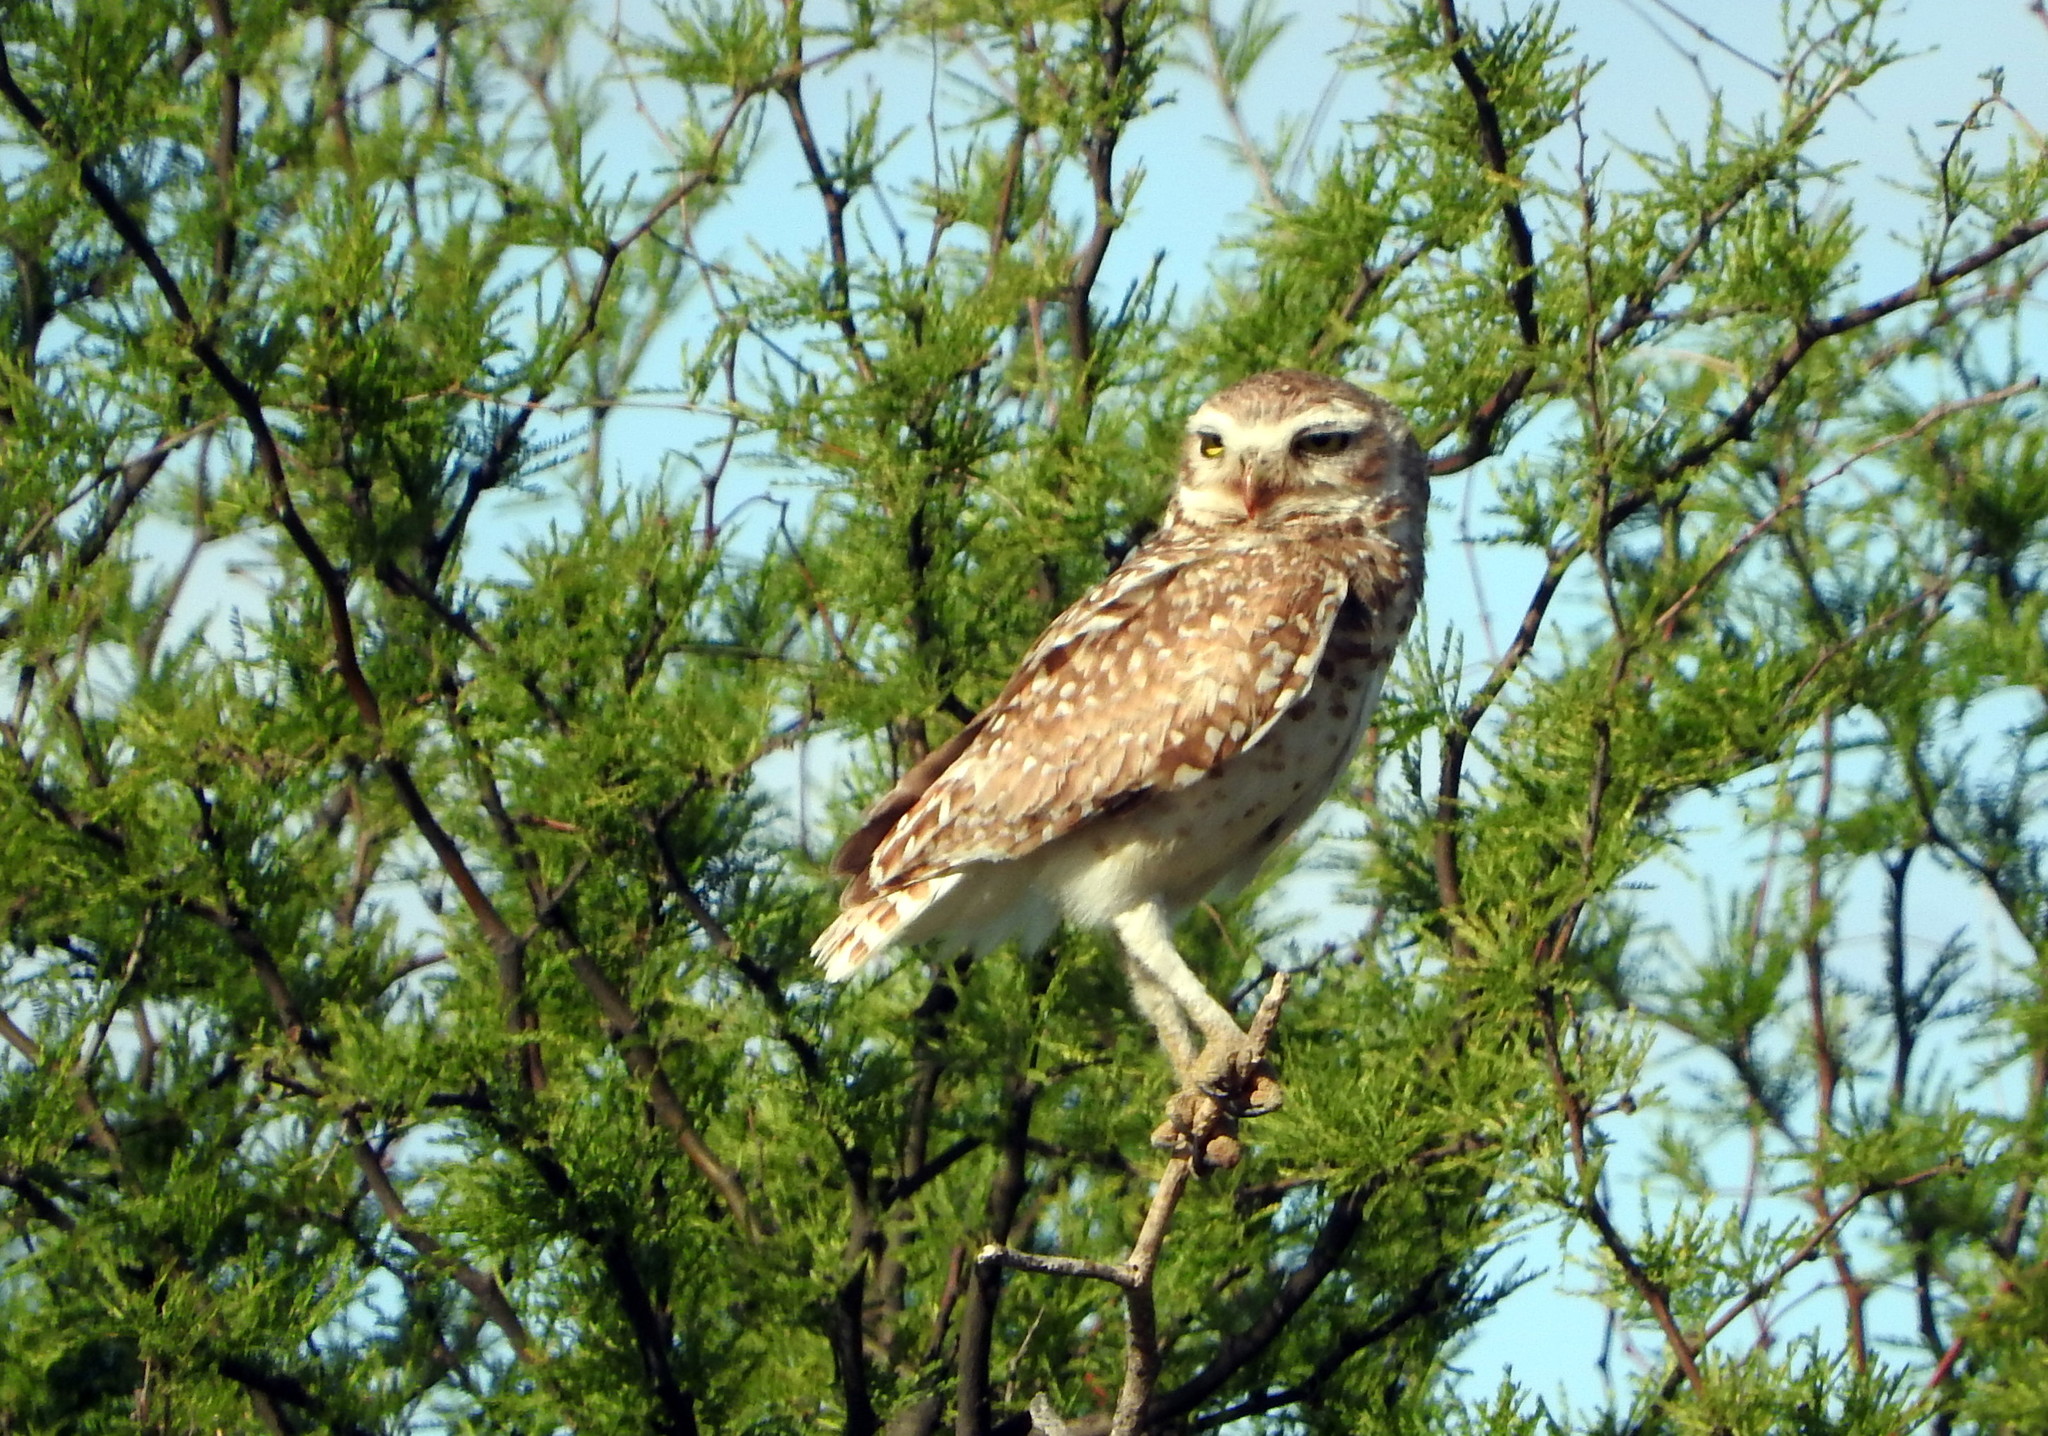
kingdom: Animalia
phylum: Chordata
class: Aves
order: Strigiformes
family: Strigidae
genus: Athene
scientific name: Athene cunicularia
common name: Burrowing owl
